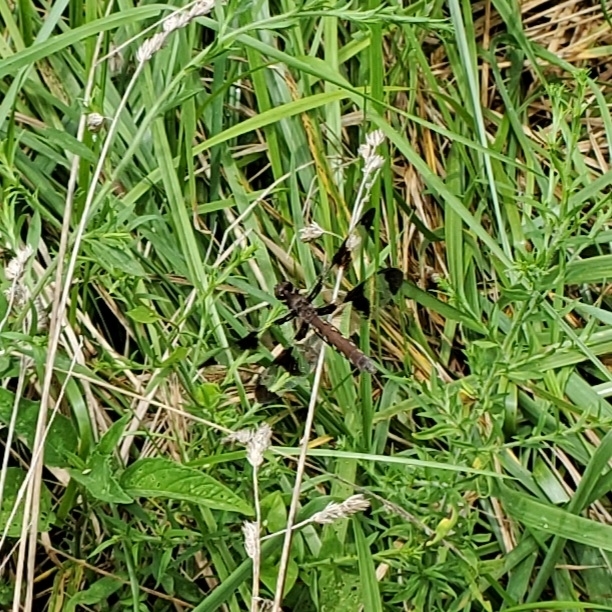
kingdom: Animalia
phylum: Arthropoda
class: Insecta
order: Odonata
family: Libellulidae
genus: Plathemis
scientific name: Plathemis lydia
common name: Common whitetail
